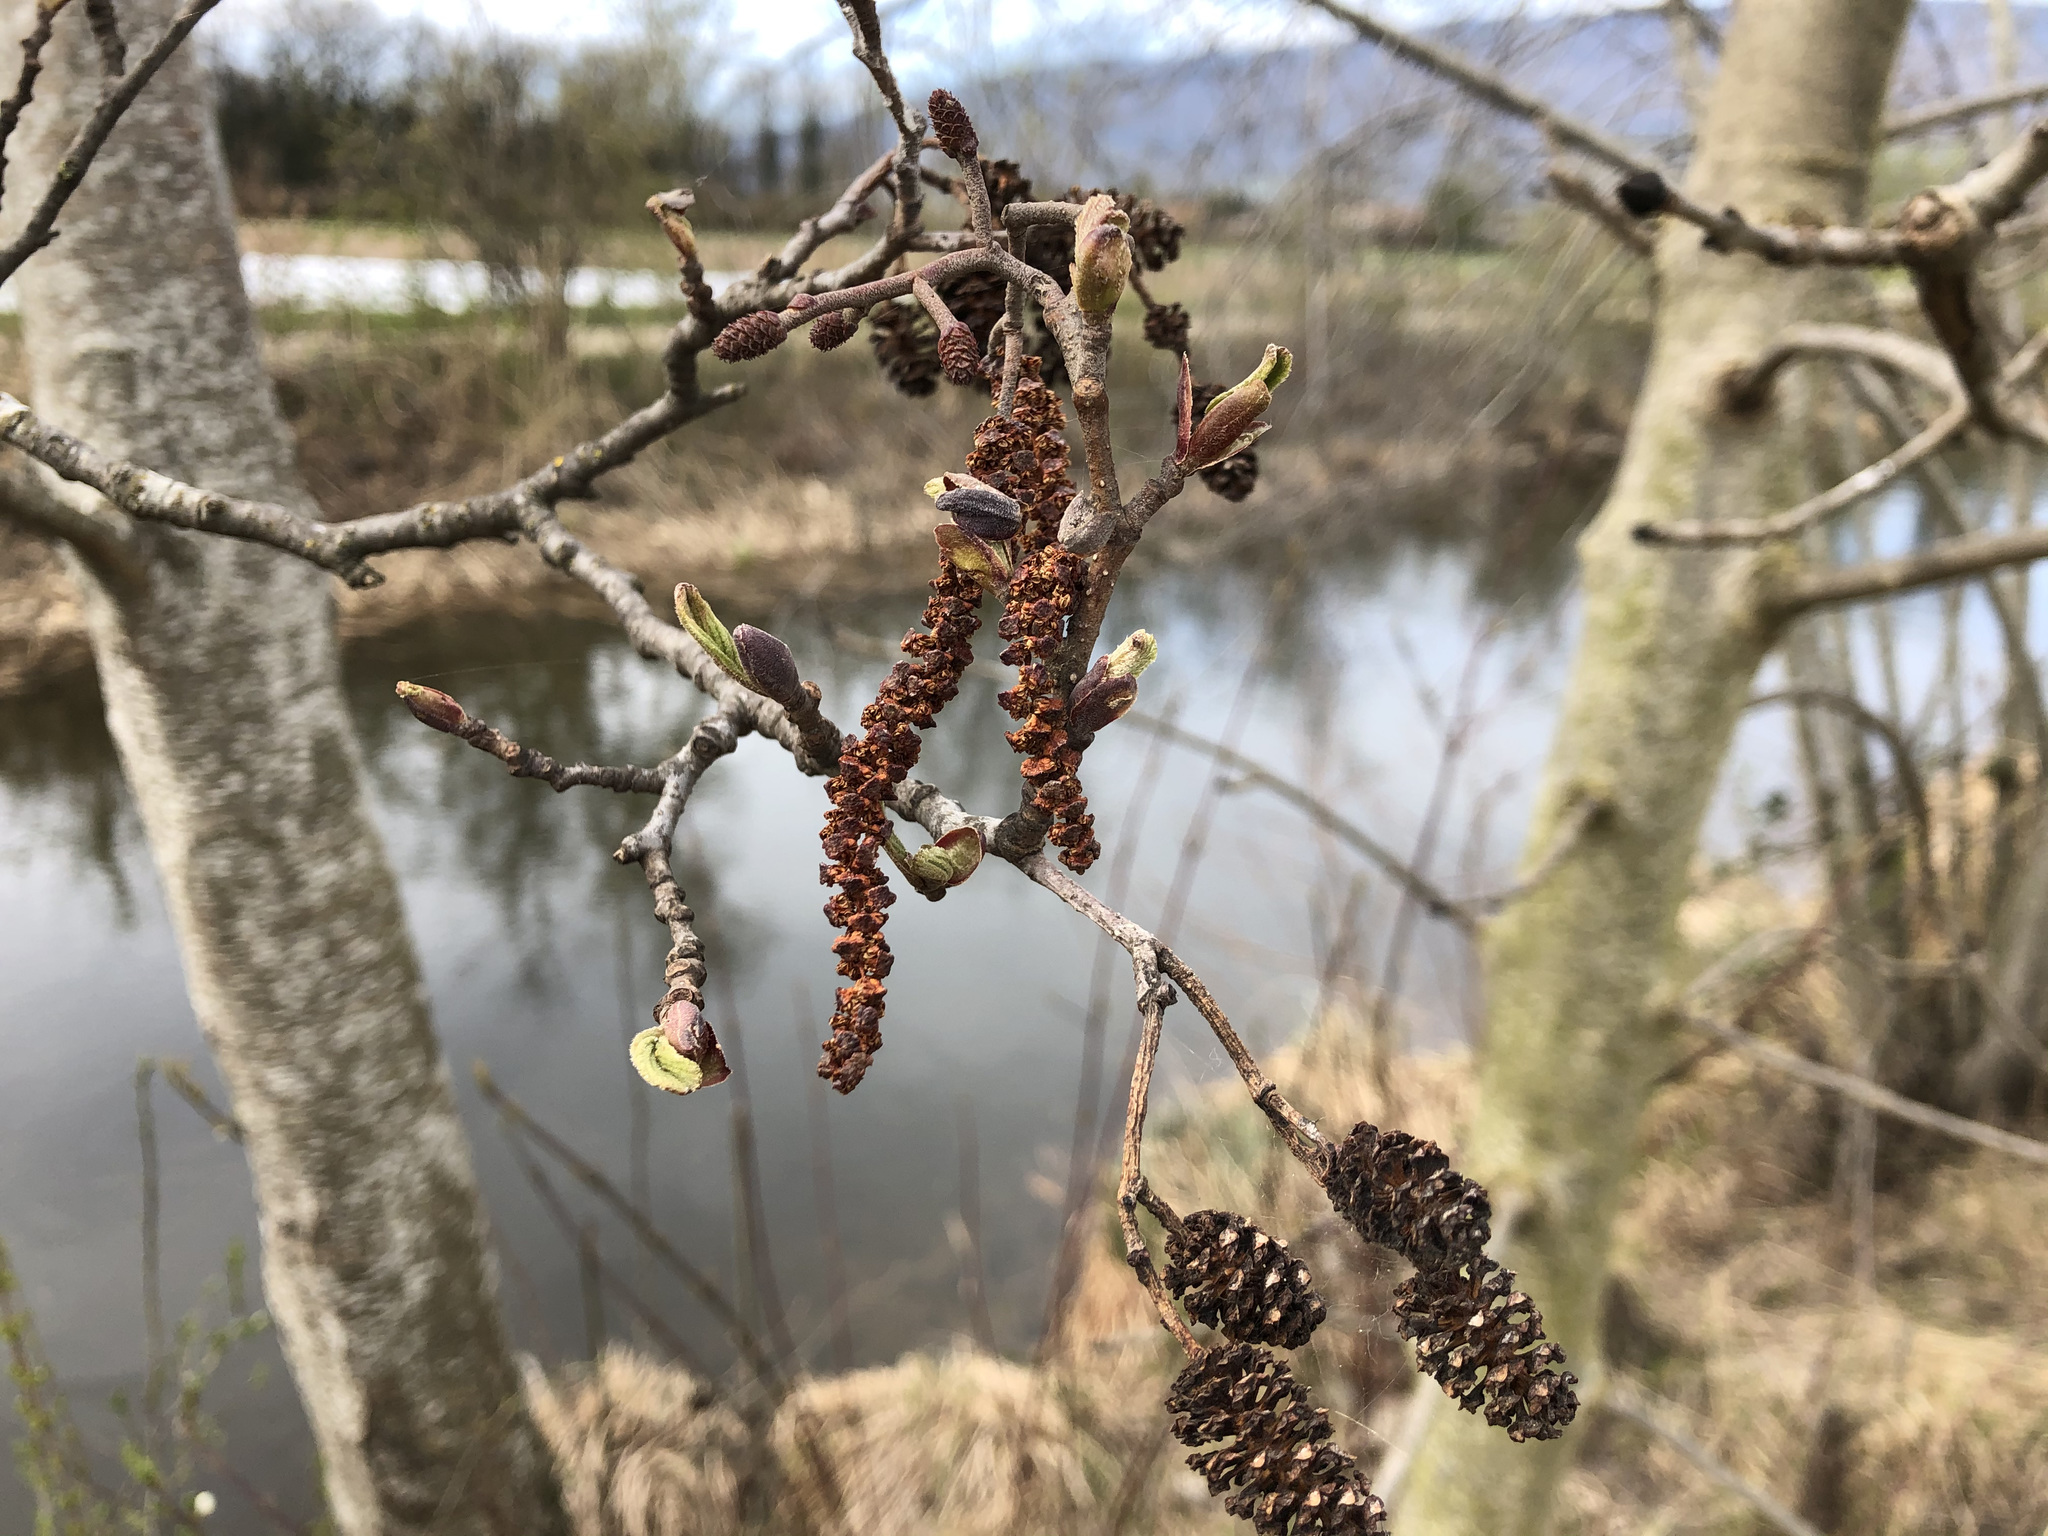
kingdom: Plantae
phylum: Tracheophyta
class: Magnoliopsida
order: Fagales
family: Betulaceae
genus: Alnus
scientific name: Alnus glutinosa
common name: Black alder
